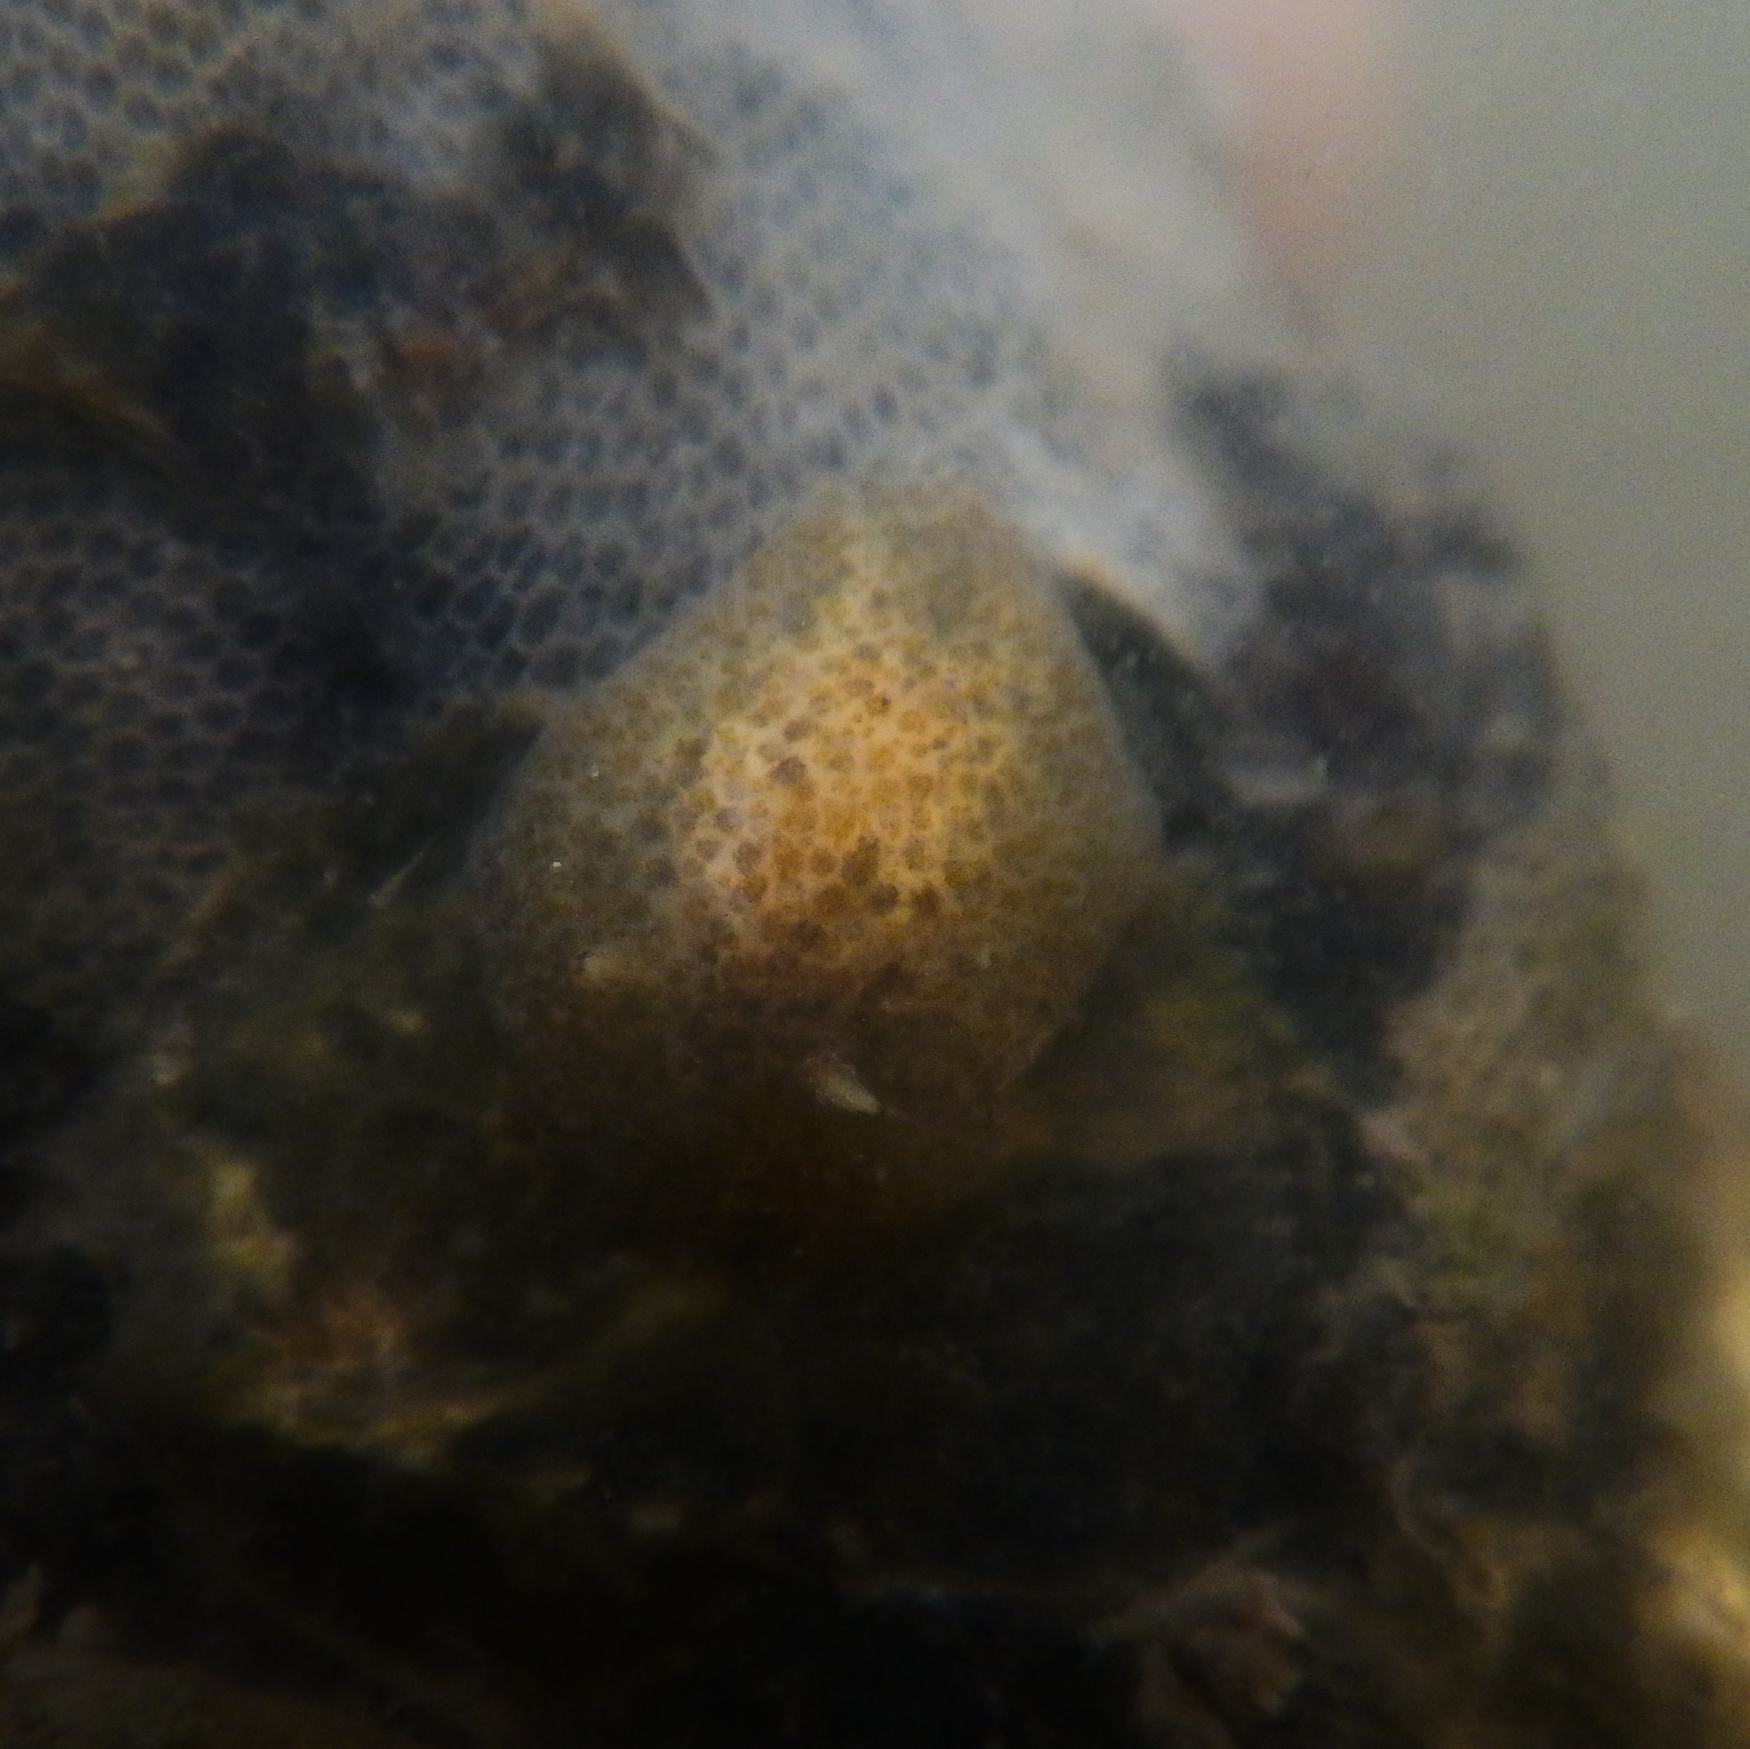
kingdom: Animalia
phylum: Mollusca
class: Gastropoda
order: Nudibranchia
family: Corambidae
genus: Corambe
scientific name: Corambe obscura
